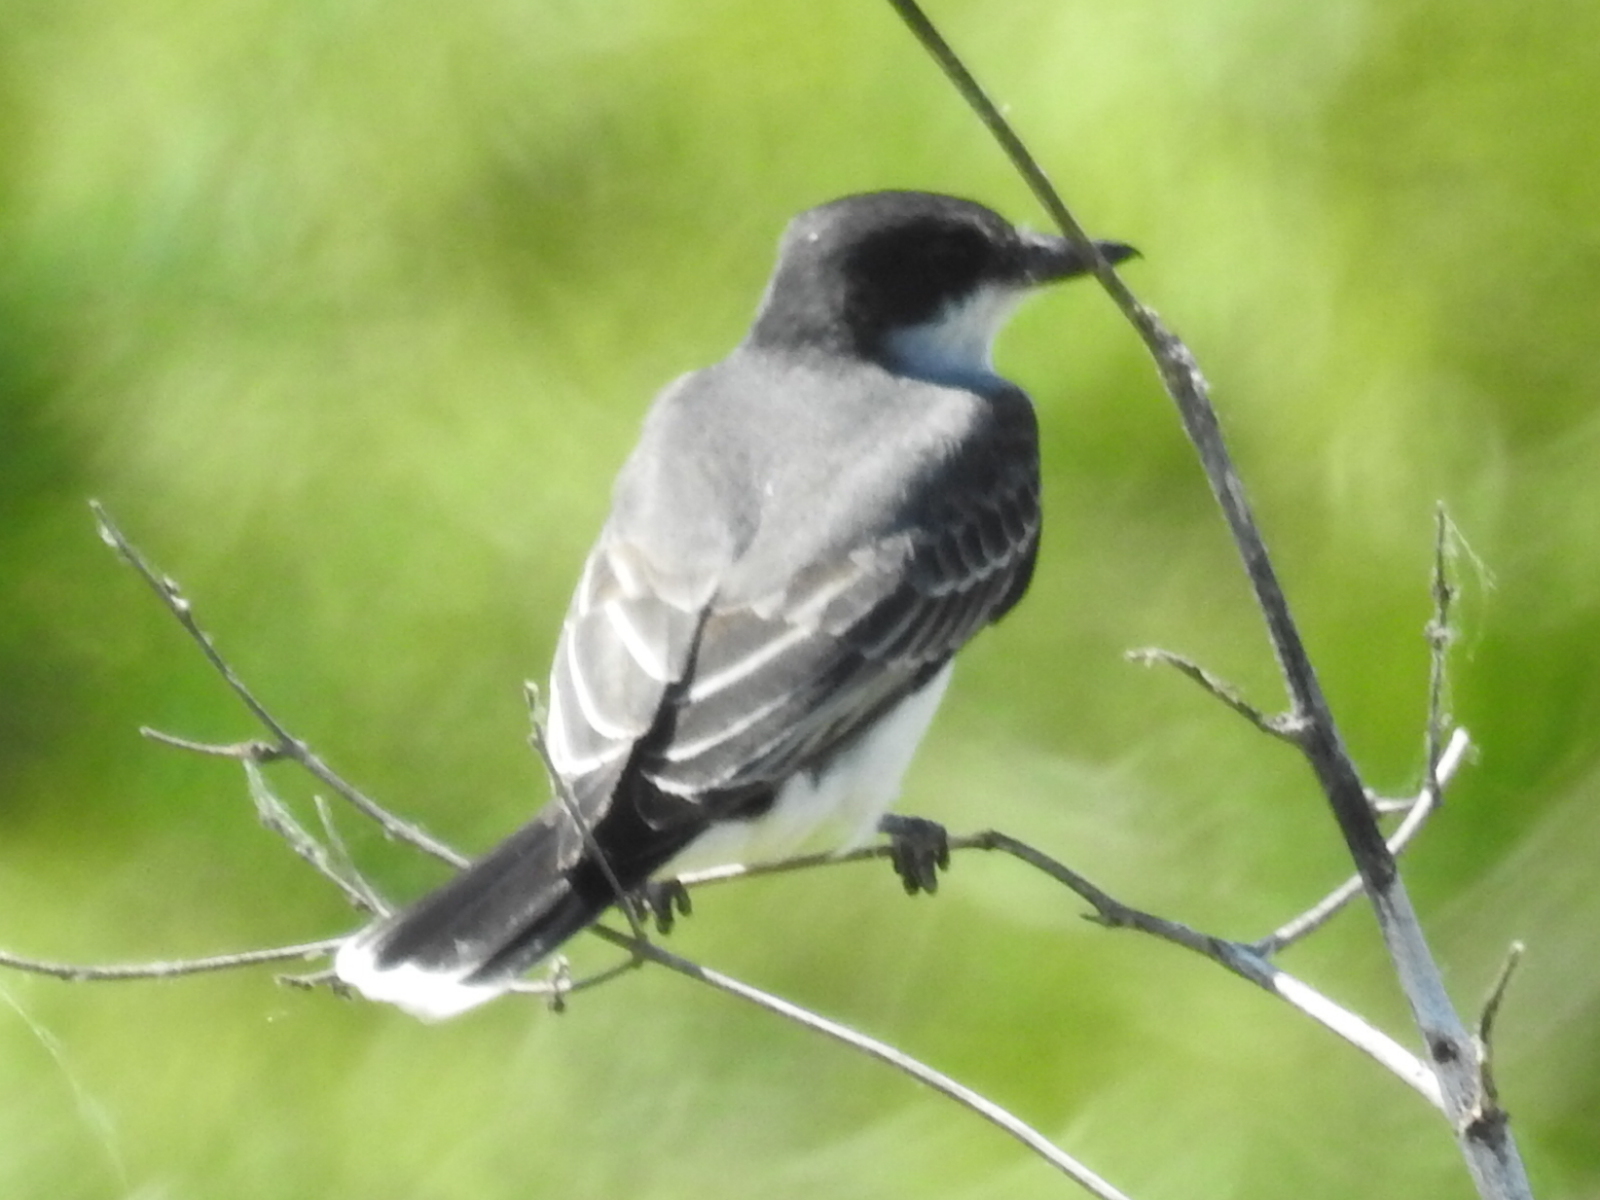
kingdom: Animalia
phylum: Chordata
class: Aves
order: Passeriformes
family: Tyrannidae
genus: Tyrannus
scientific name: Tyrannus tyrannus
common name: Eastern kingbird
